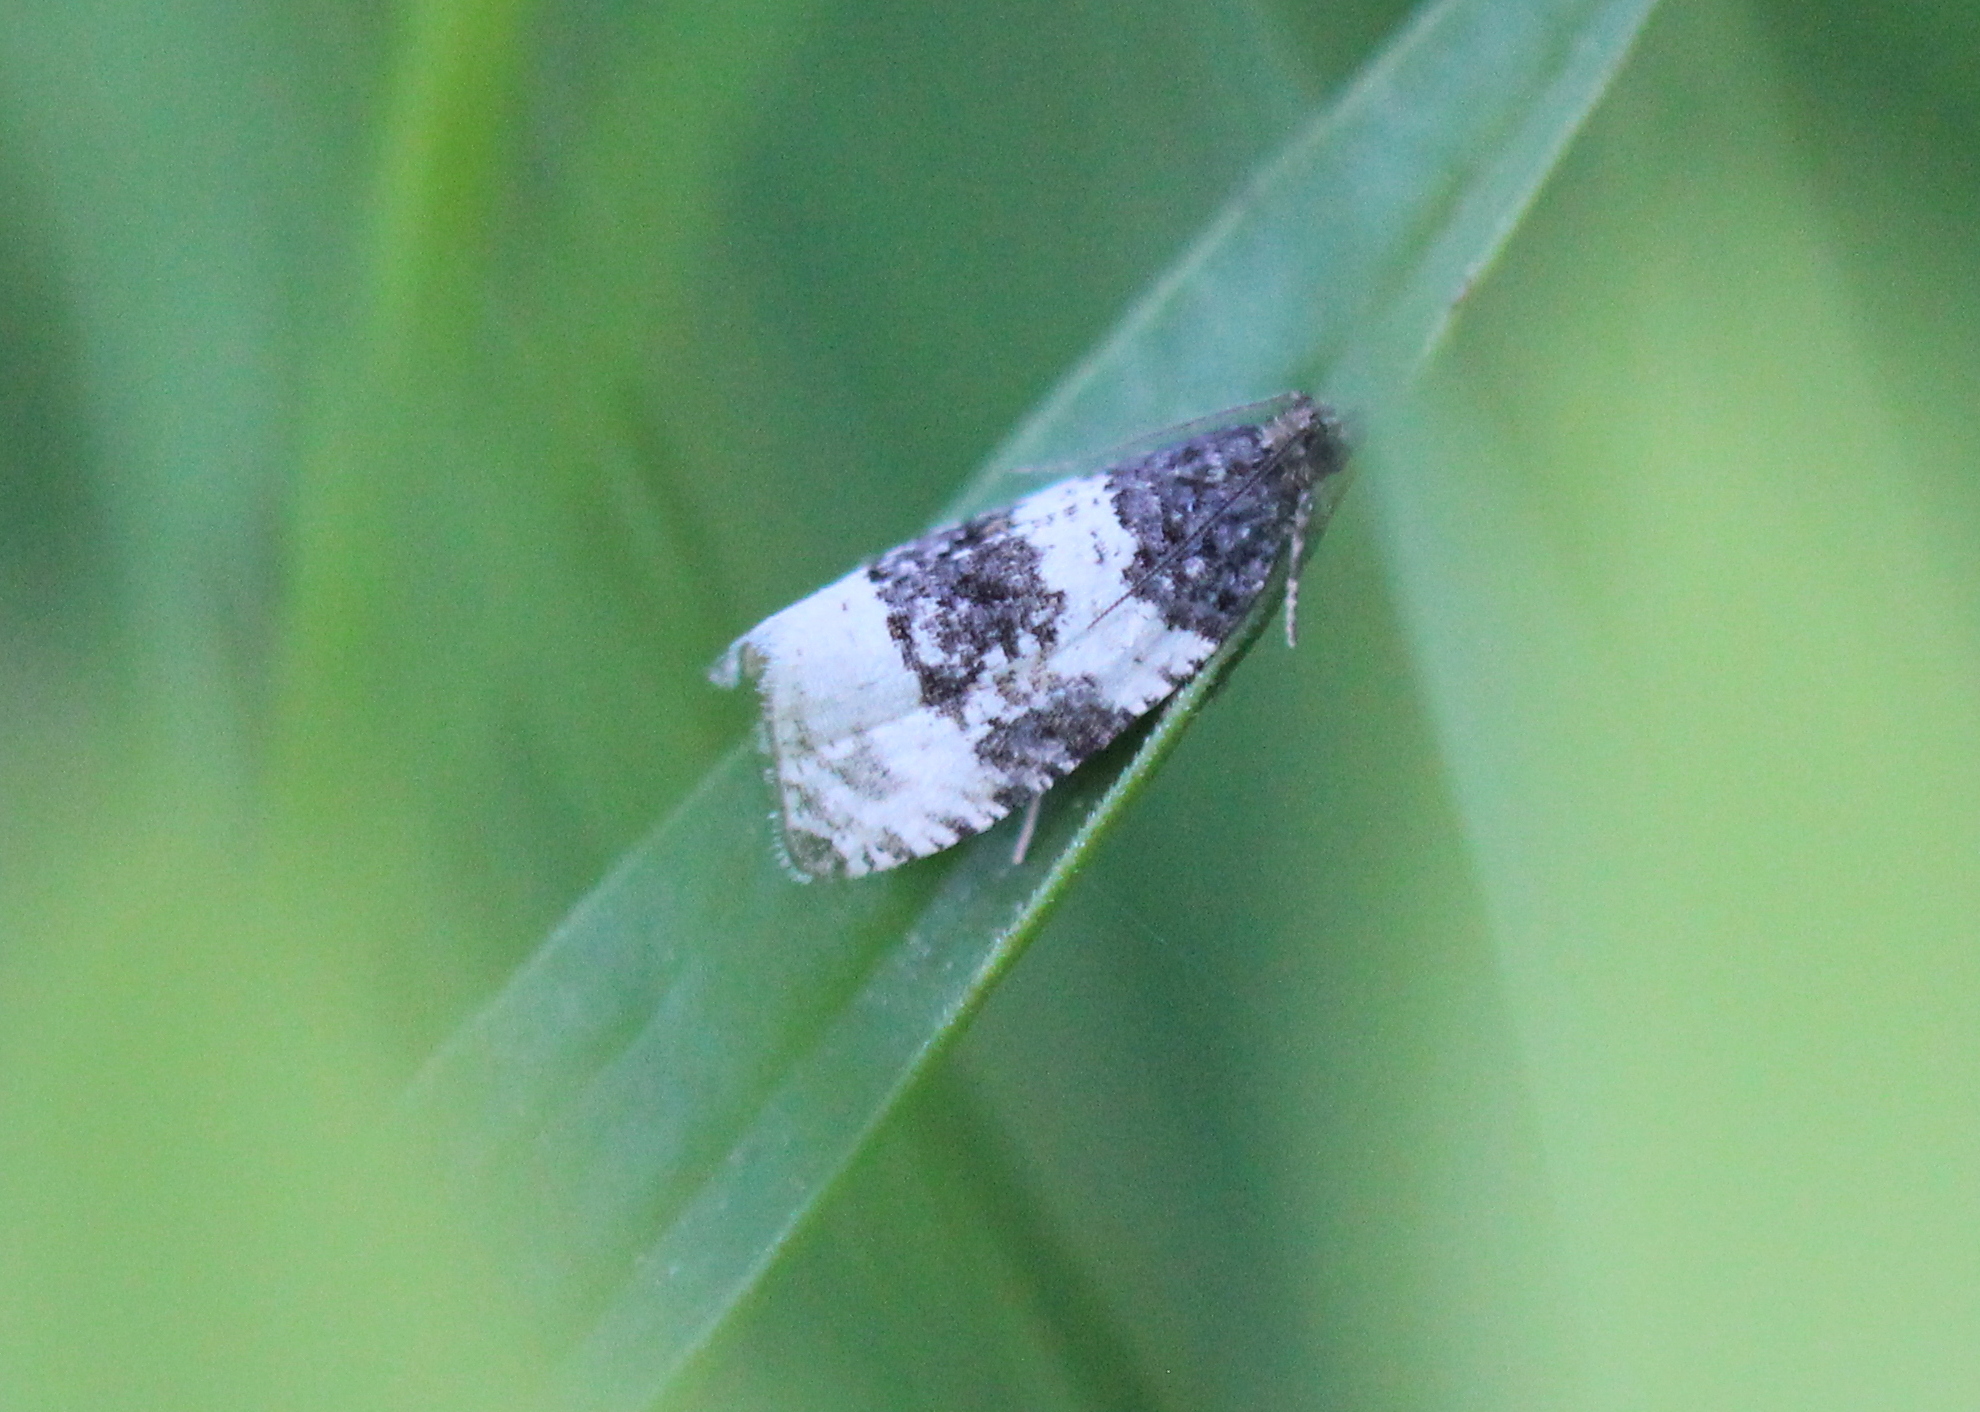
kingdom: Animalia
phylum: Arthropoda
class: Insecta
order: Lepidoptera
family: Tortricidae
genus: Olethreutes
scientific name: Olethreutes bipartitana
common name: Divided olethreutes moth
